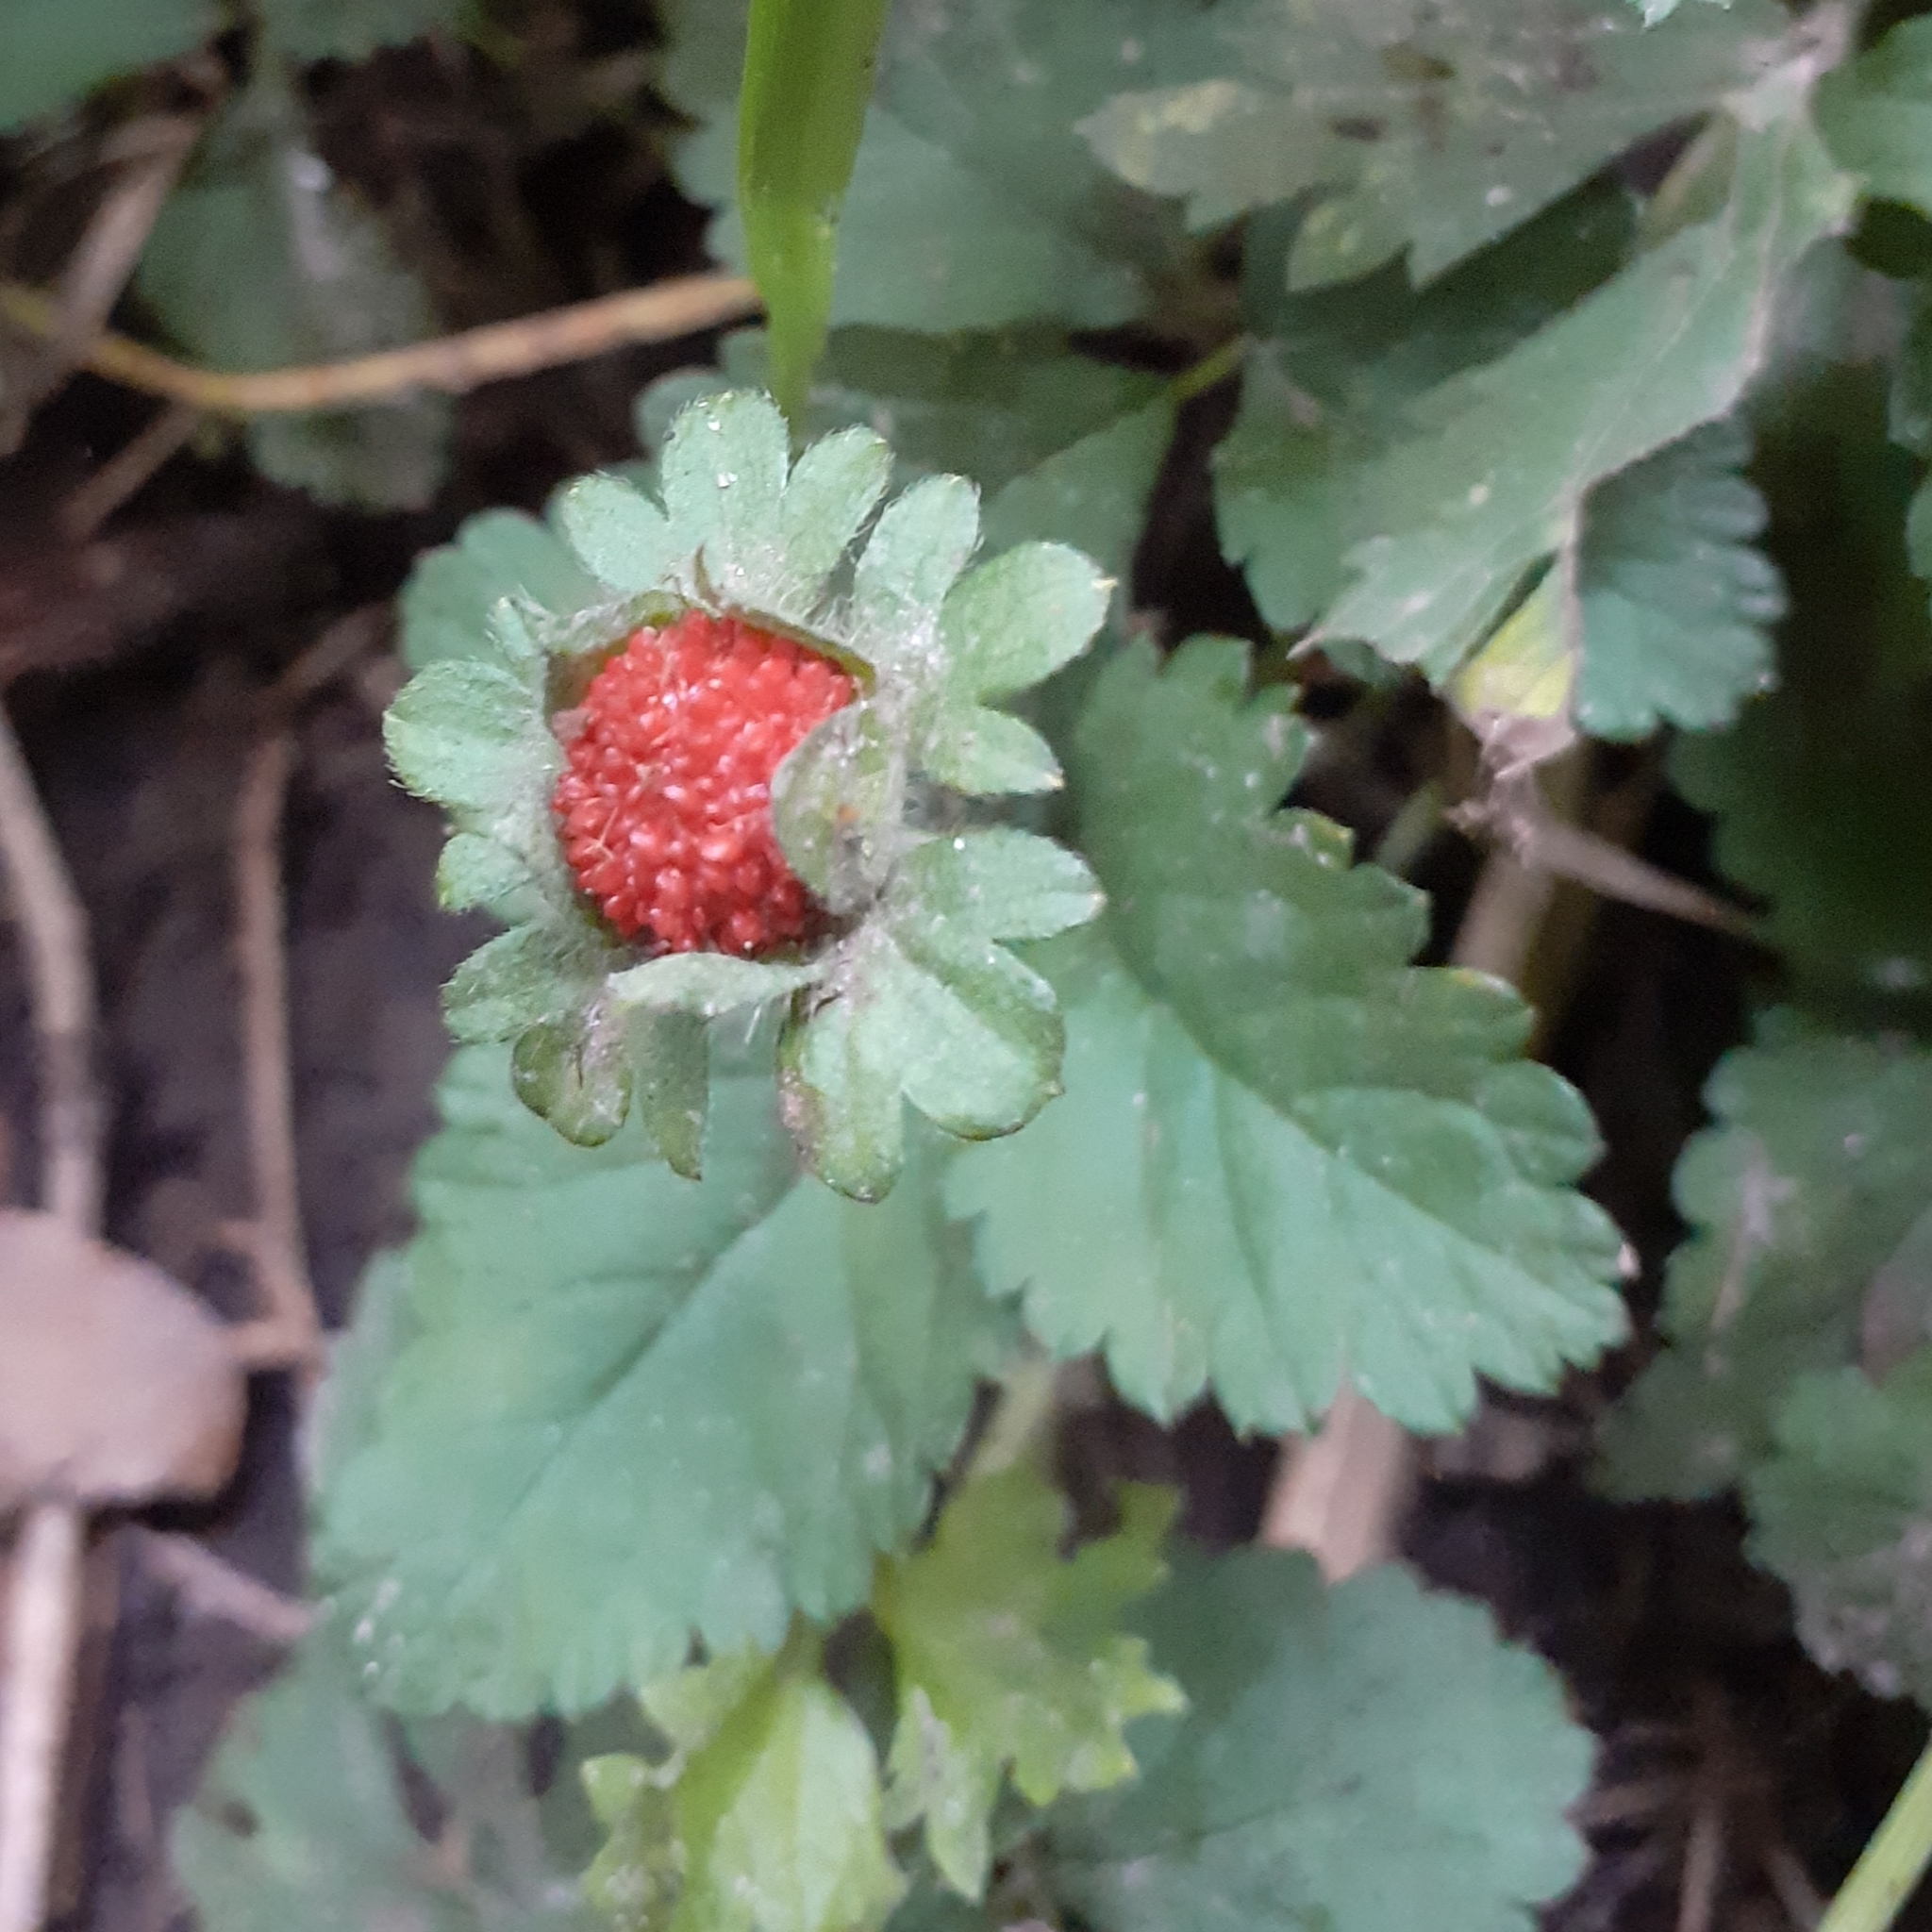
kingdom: Plantae
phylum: Tracheophyta
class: Magnoliopsida
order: Rosales
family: Rosaceae
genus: Potentilla
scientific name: Potentilla indica
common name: Yellow-flowered strawberry
